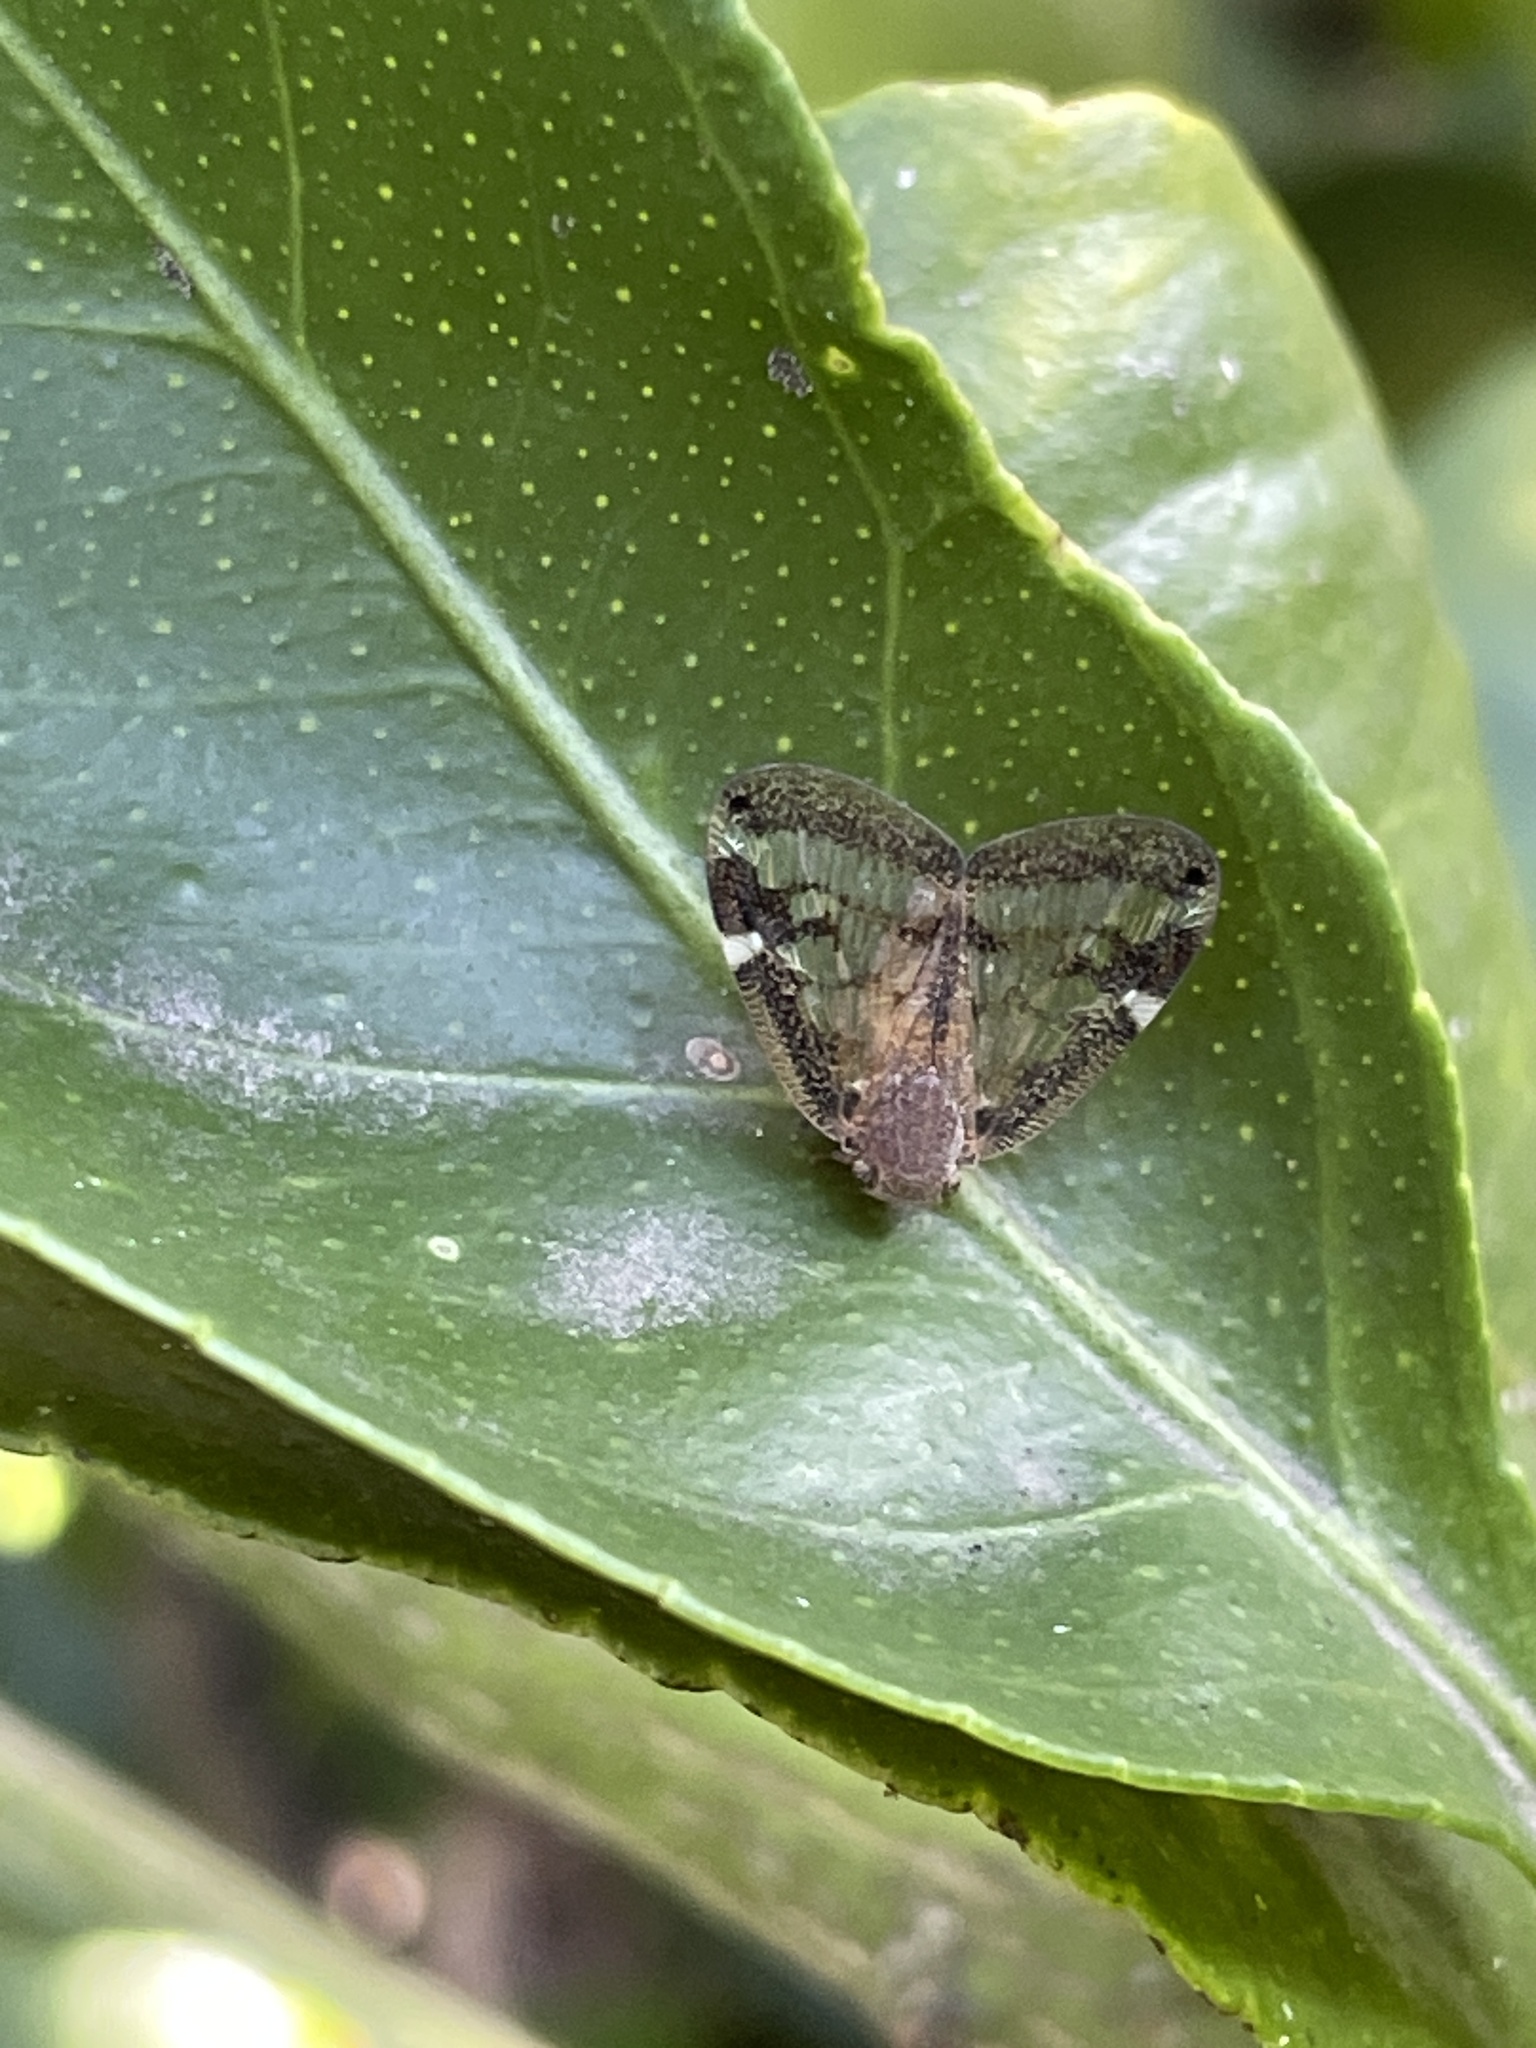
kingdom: Animalia
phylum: Arthropoda
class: Insecta
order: Hemiptera
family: Ricaniidae
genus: Scolypopa
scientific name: Scolypopa australis
